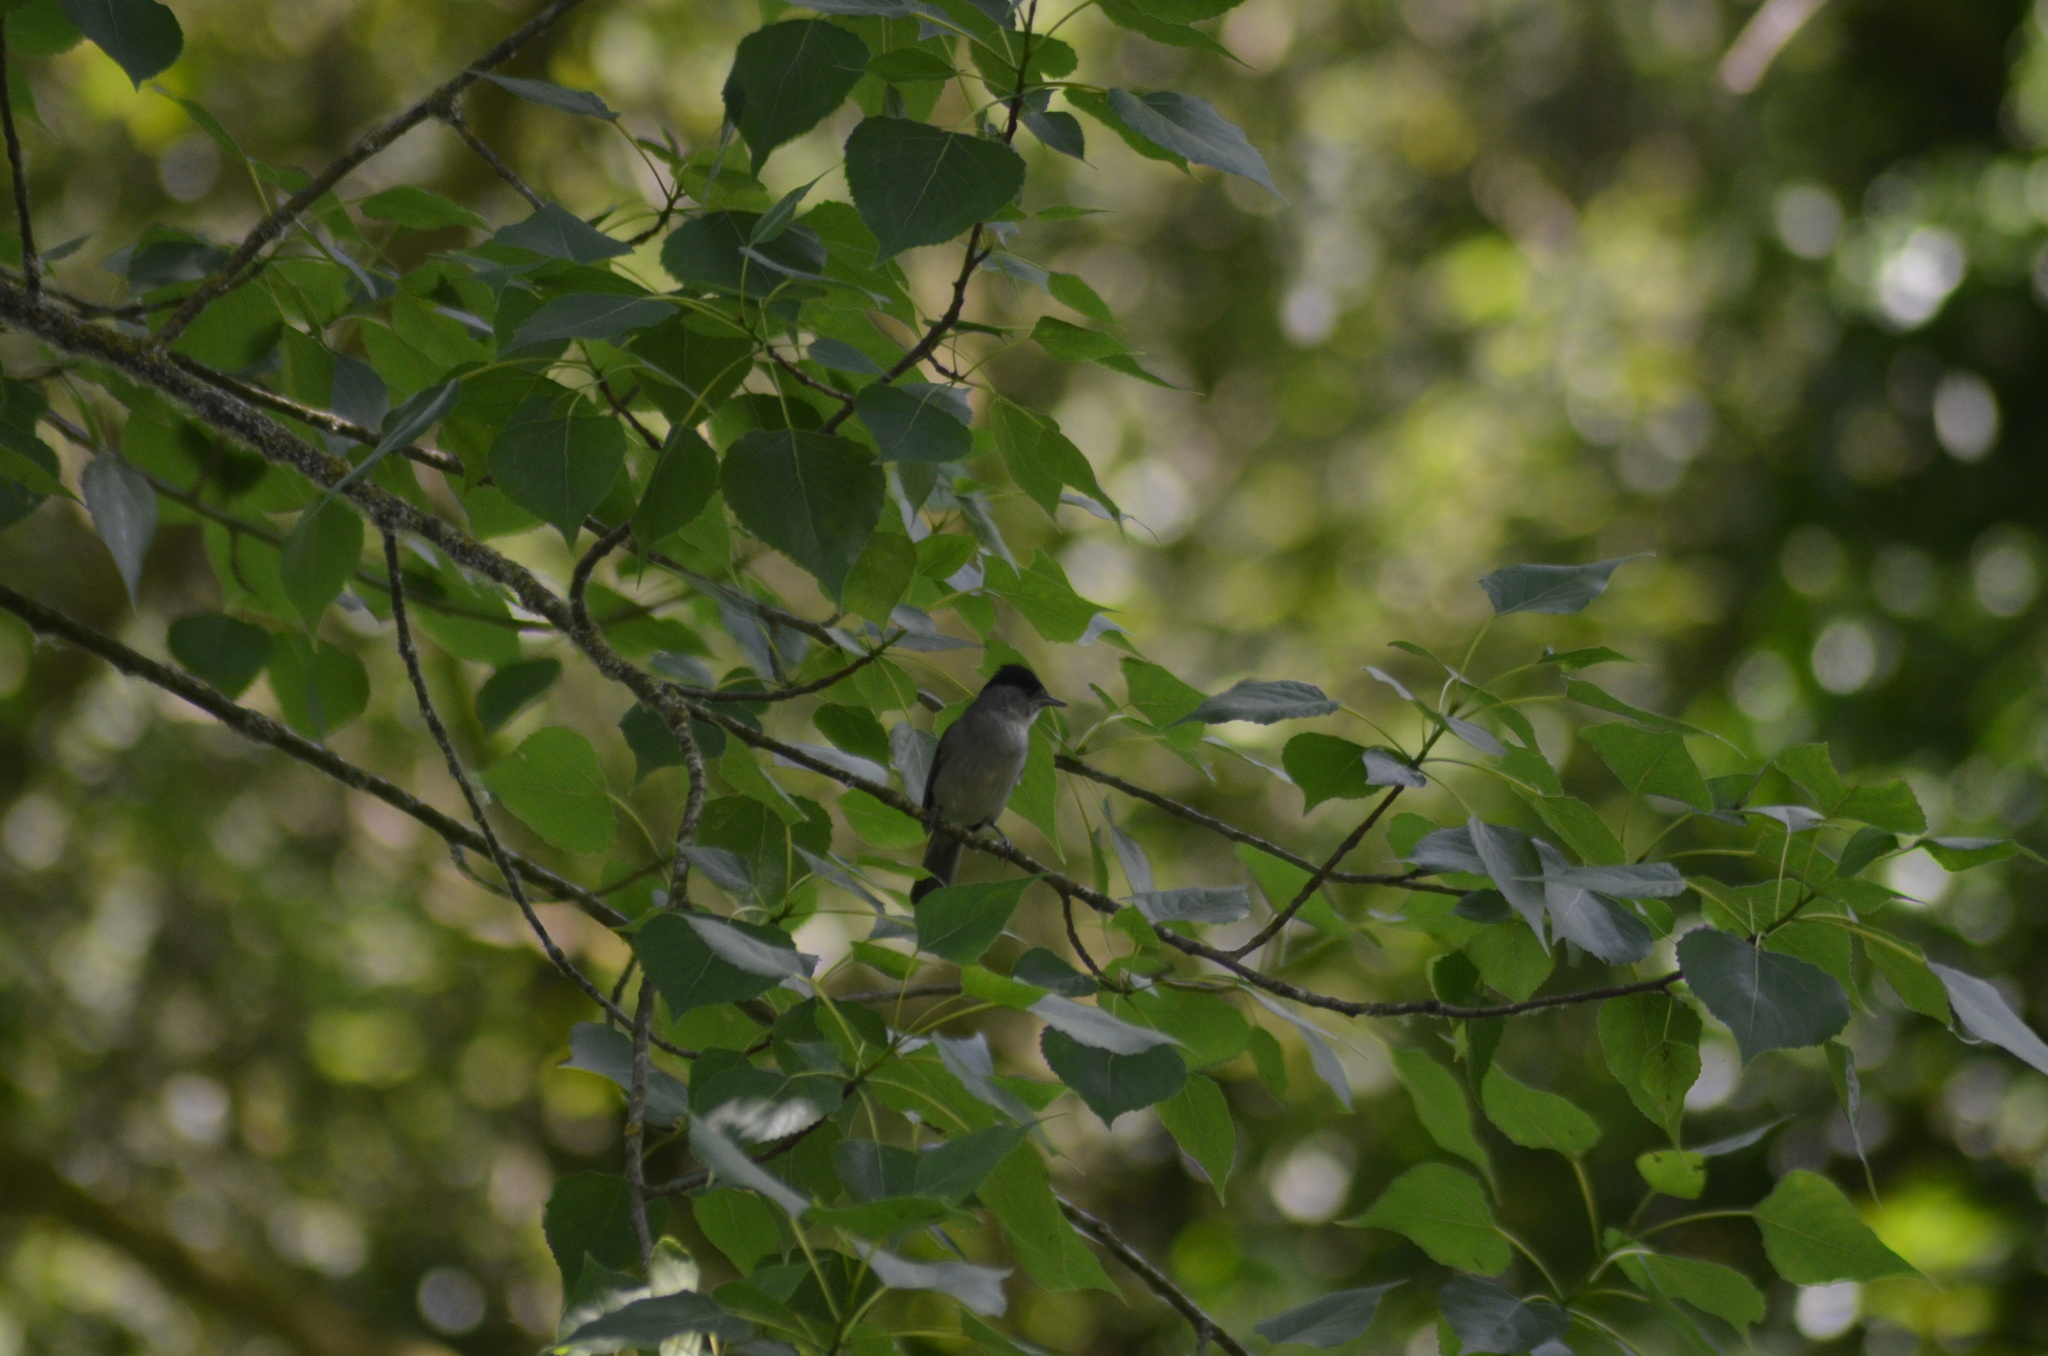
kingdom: Animalia
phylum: Chordata
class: Aves
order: Passeriformes
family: Sylviidae
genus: Sylvia
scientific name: Sylvia atricapilla
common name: Eurasian blackcap
